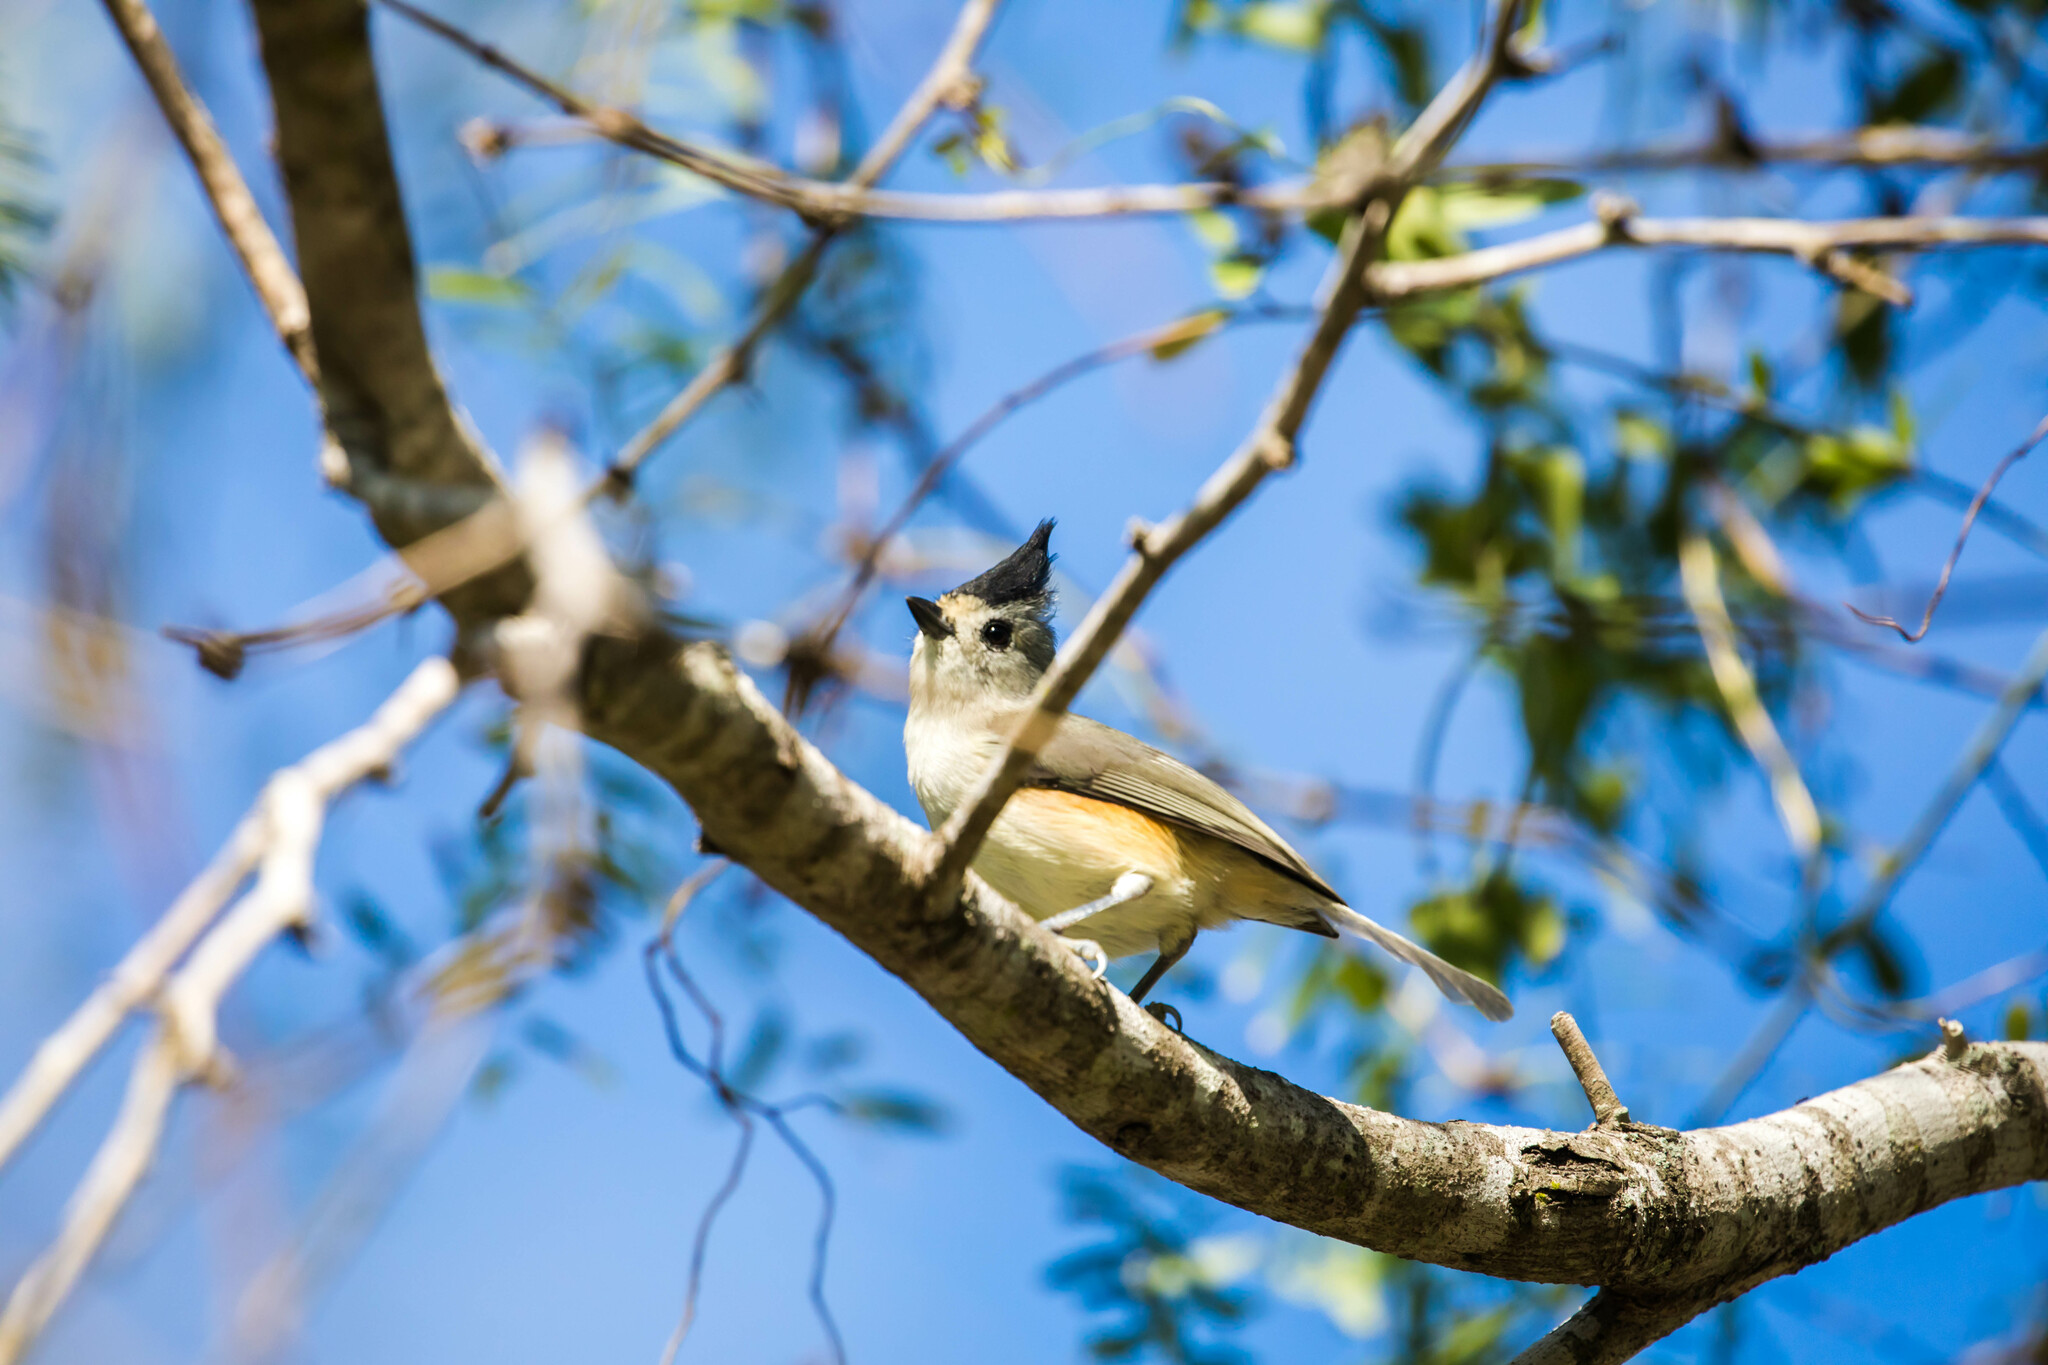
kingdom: Animalia
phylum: Chordata
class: Aves
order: Passeriformes
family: Paridae
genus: Baeolophus
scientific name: Baeolophus atricristatus
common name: Black-crested titmouse
